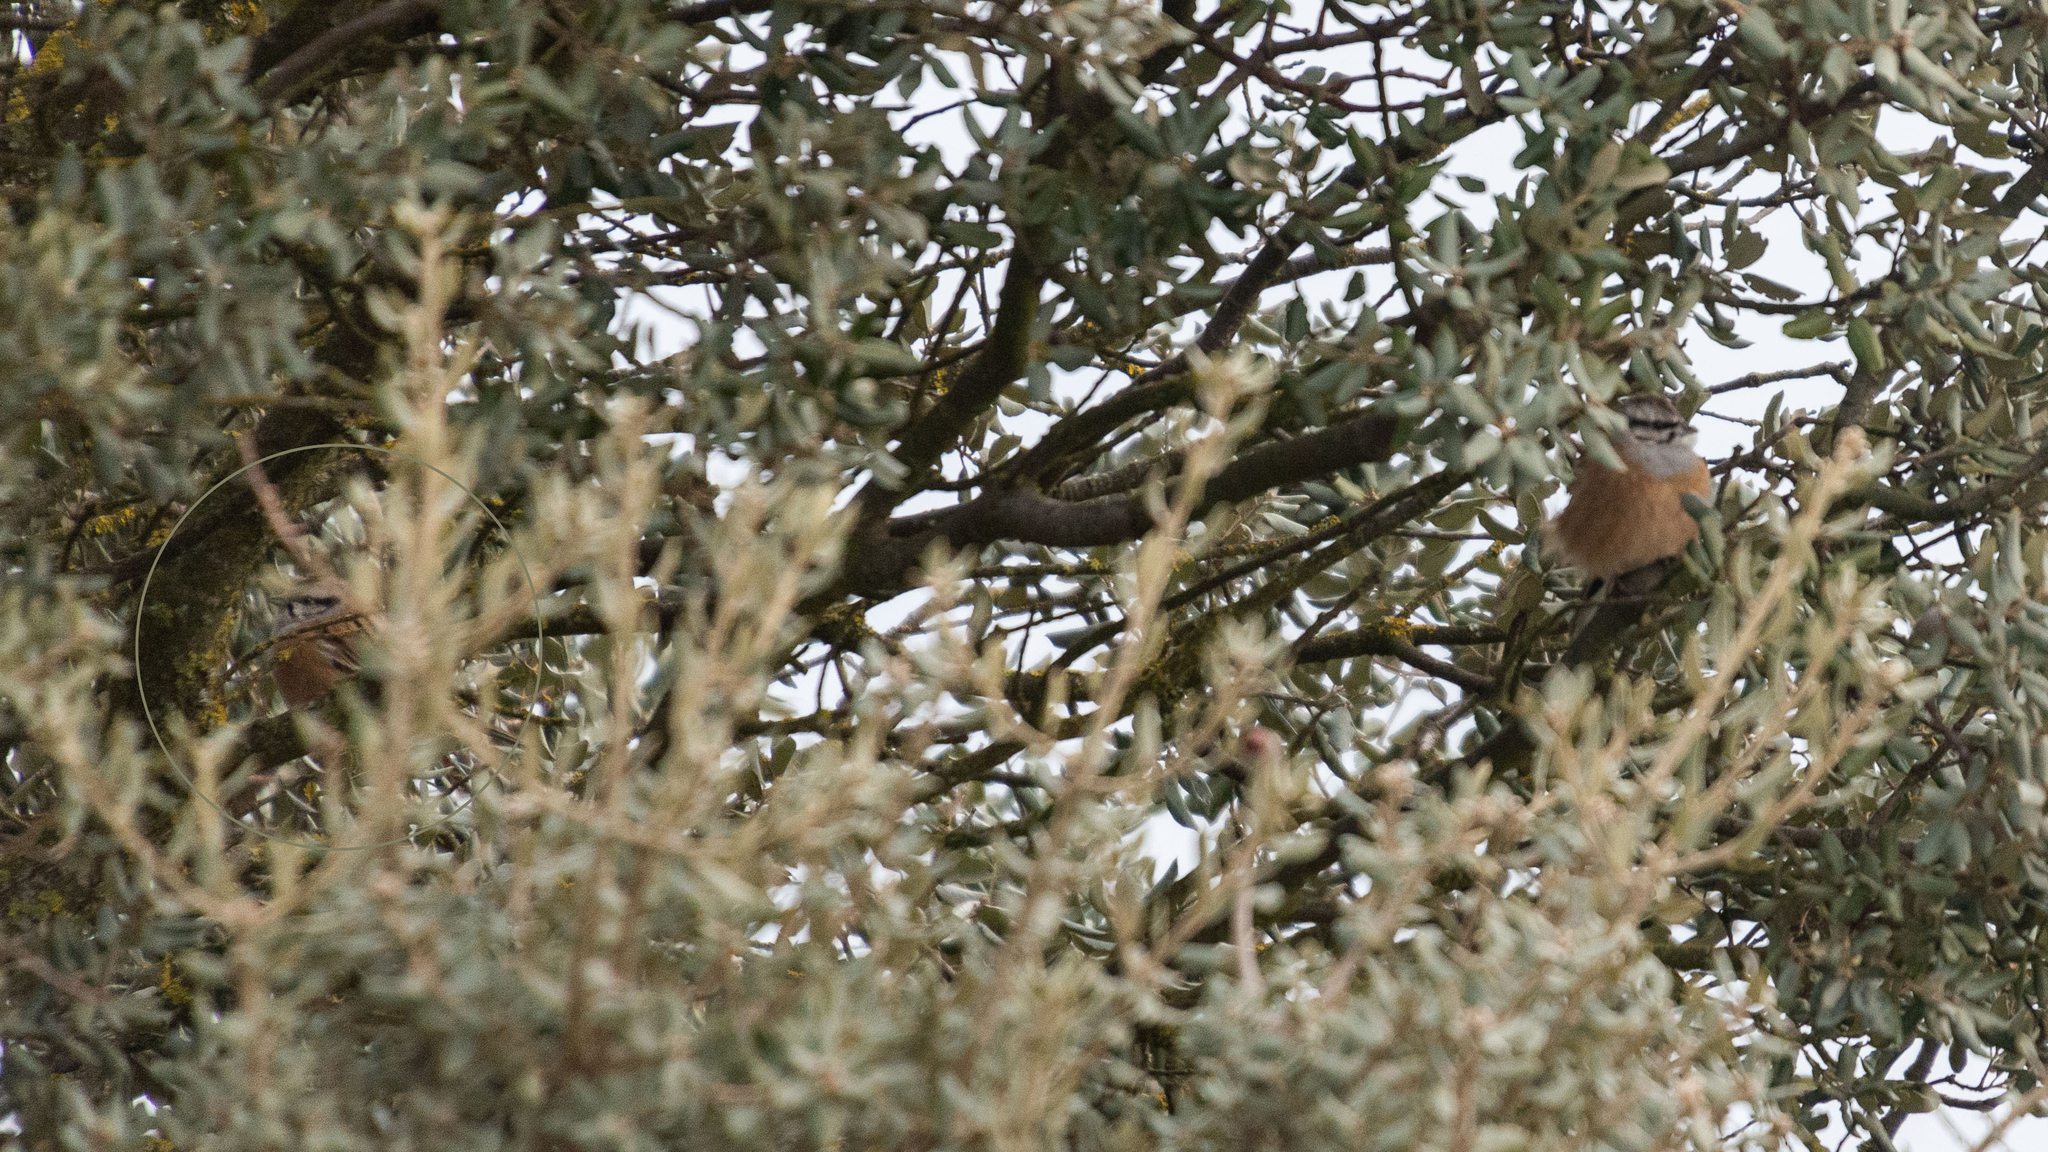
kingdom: Animalia
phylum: Chordata
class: Aves
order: Passeriformes
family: Emberizidae
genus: Emberiza
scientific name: Emberiza cia
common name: Rock bunting
